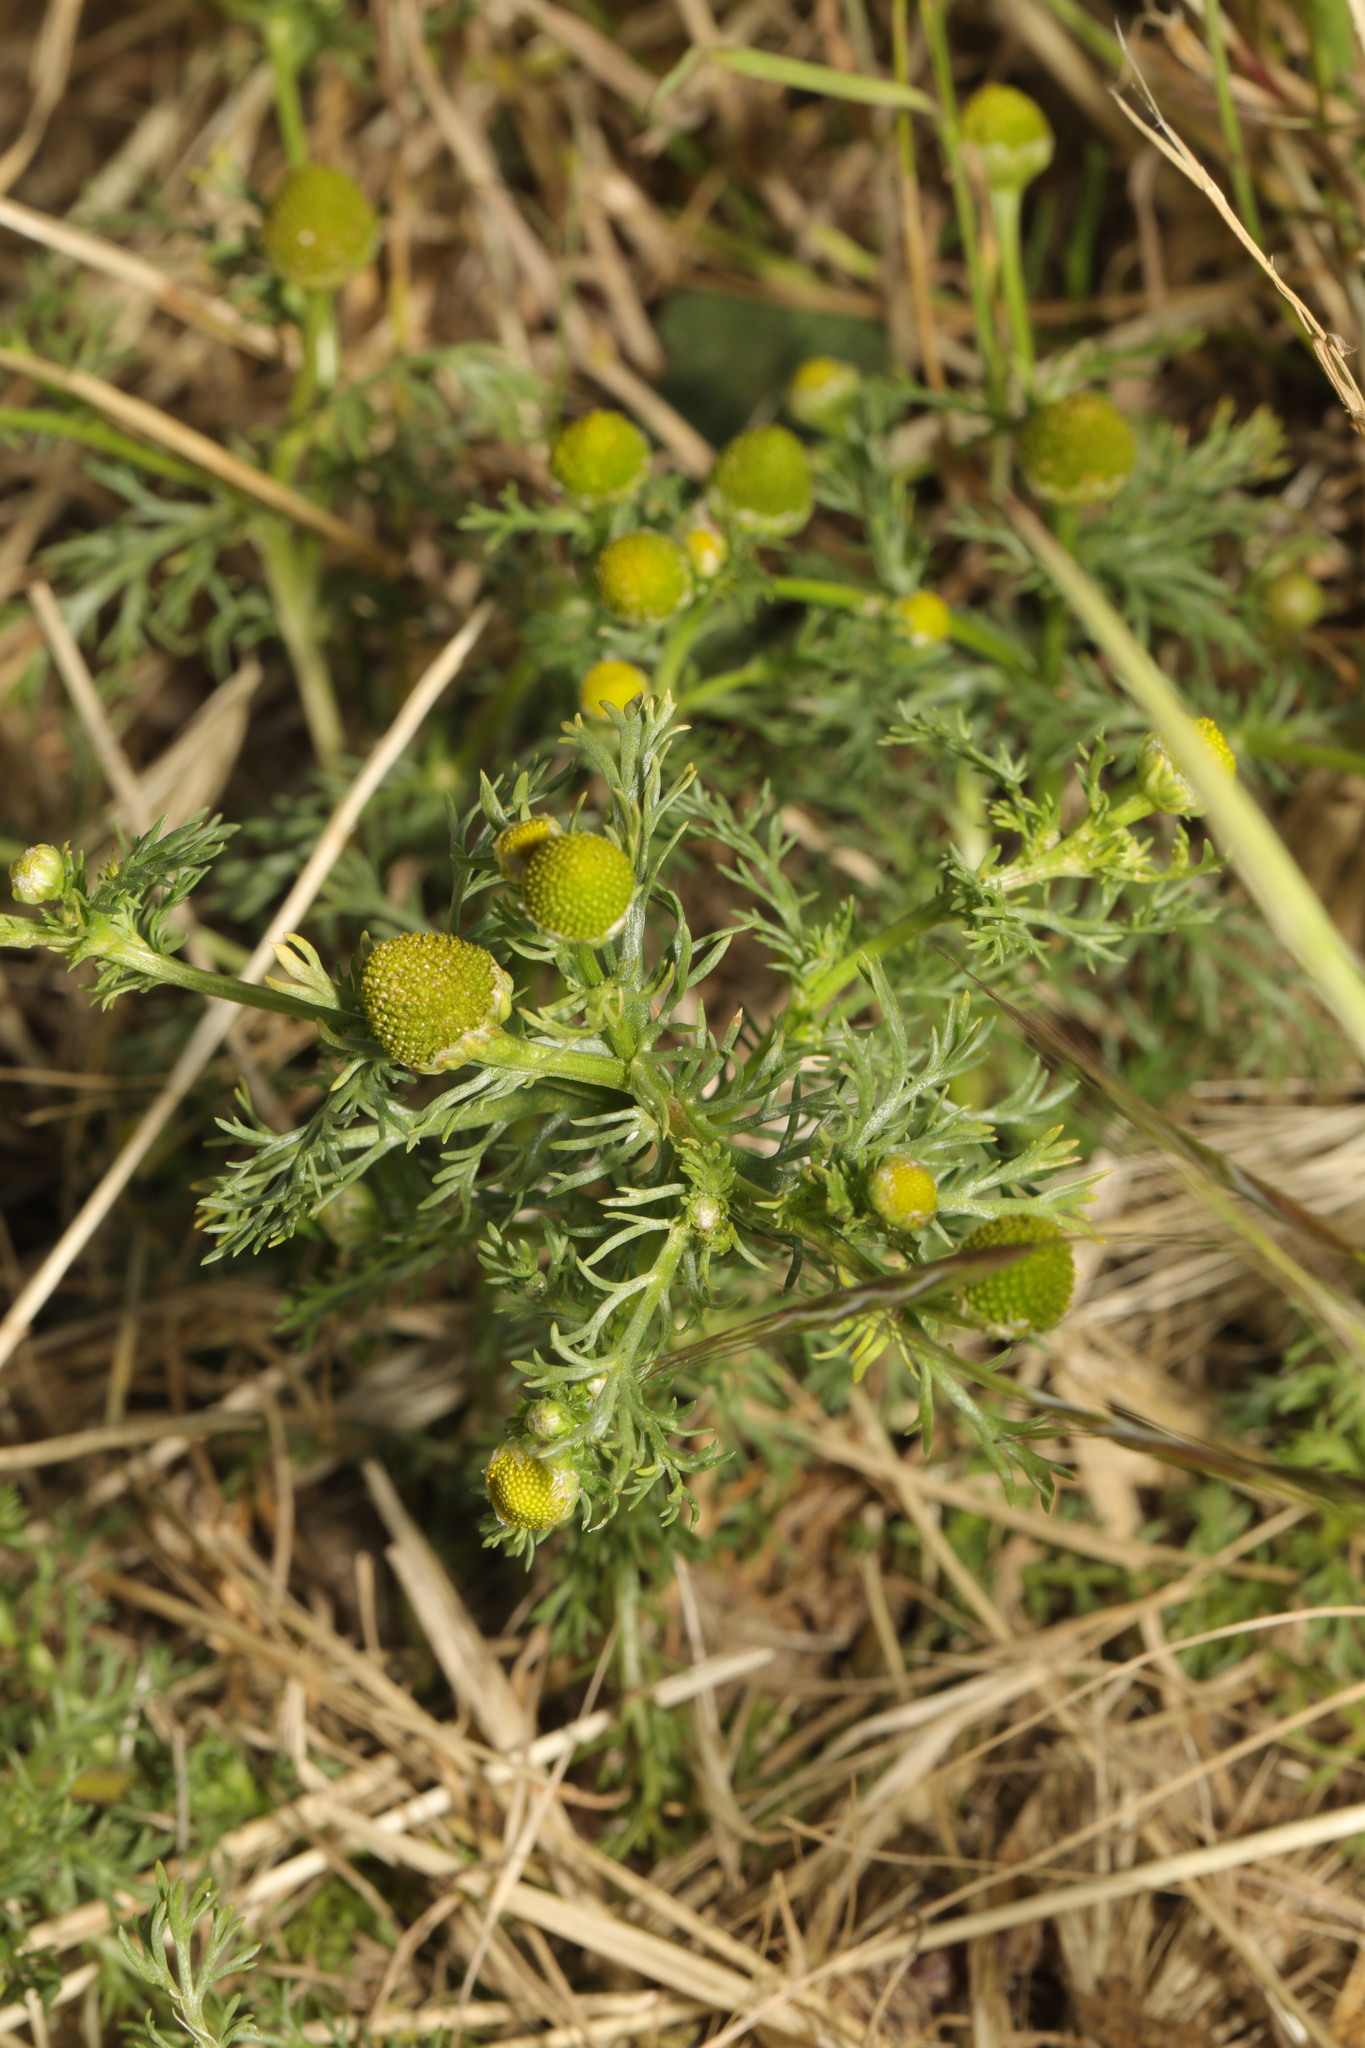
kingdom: Plantae
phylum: Tracheophyta
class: Magnoliopsida
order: Asterales
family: Asteraceae
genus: Matricaria
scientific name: Matricaria discoidea
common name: Disc mayweed
